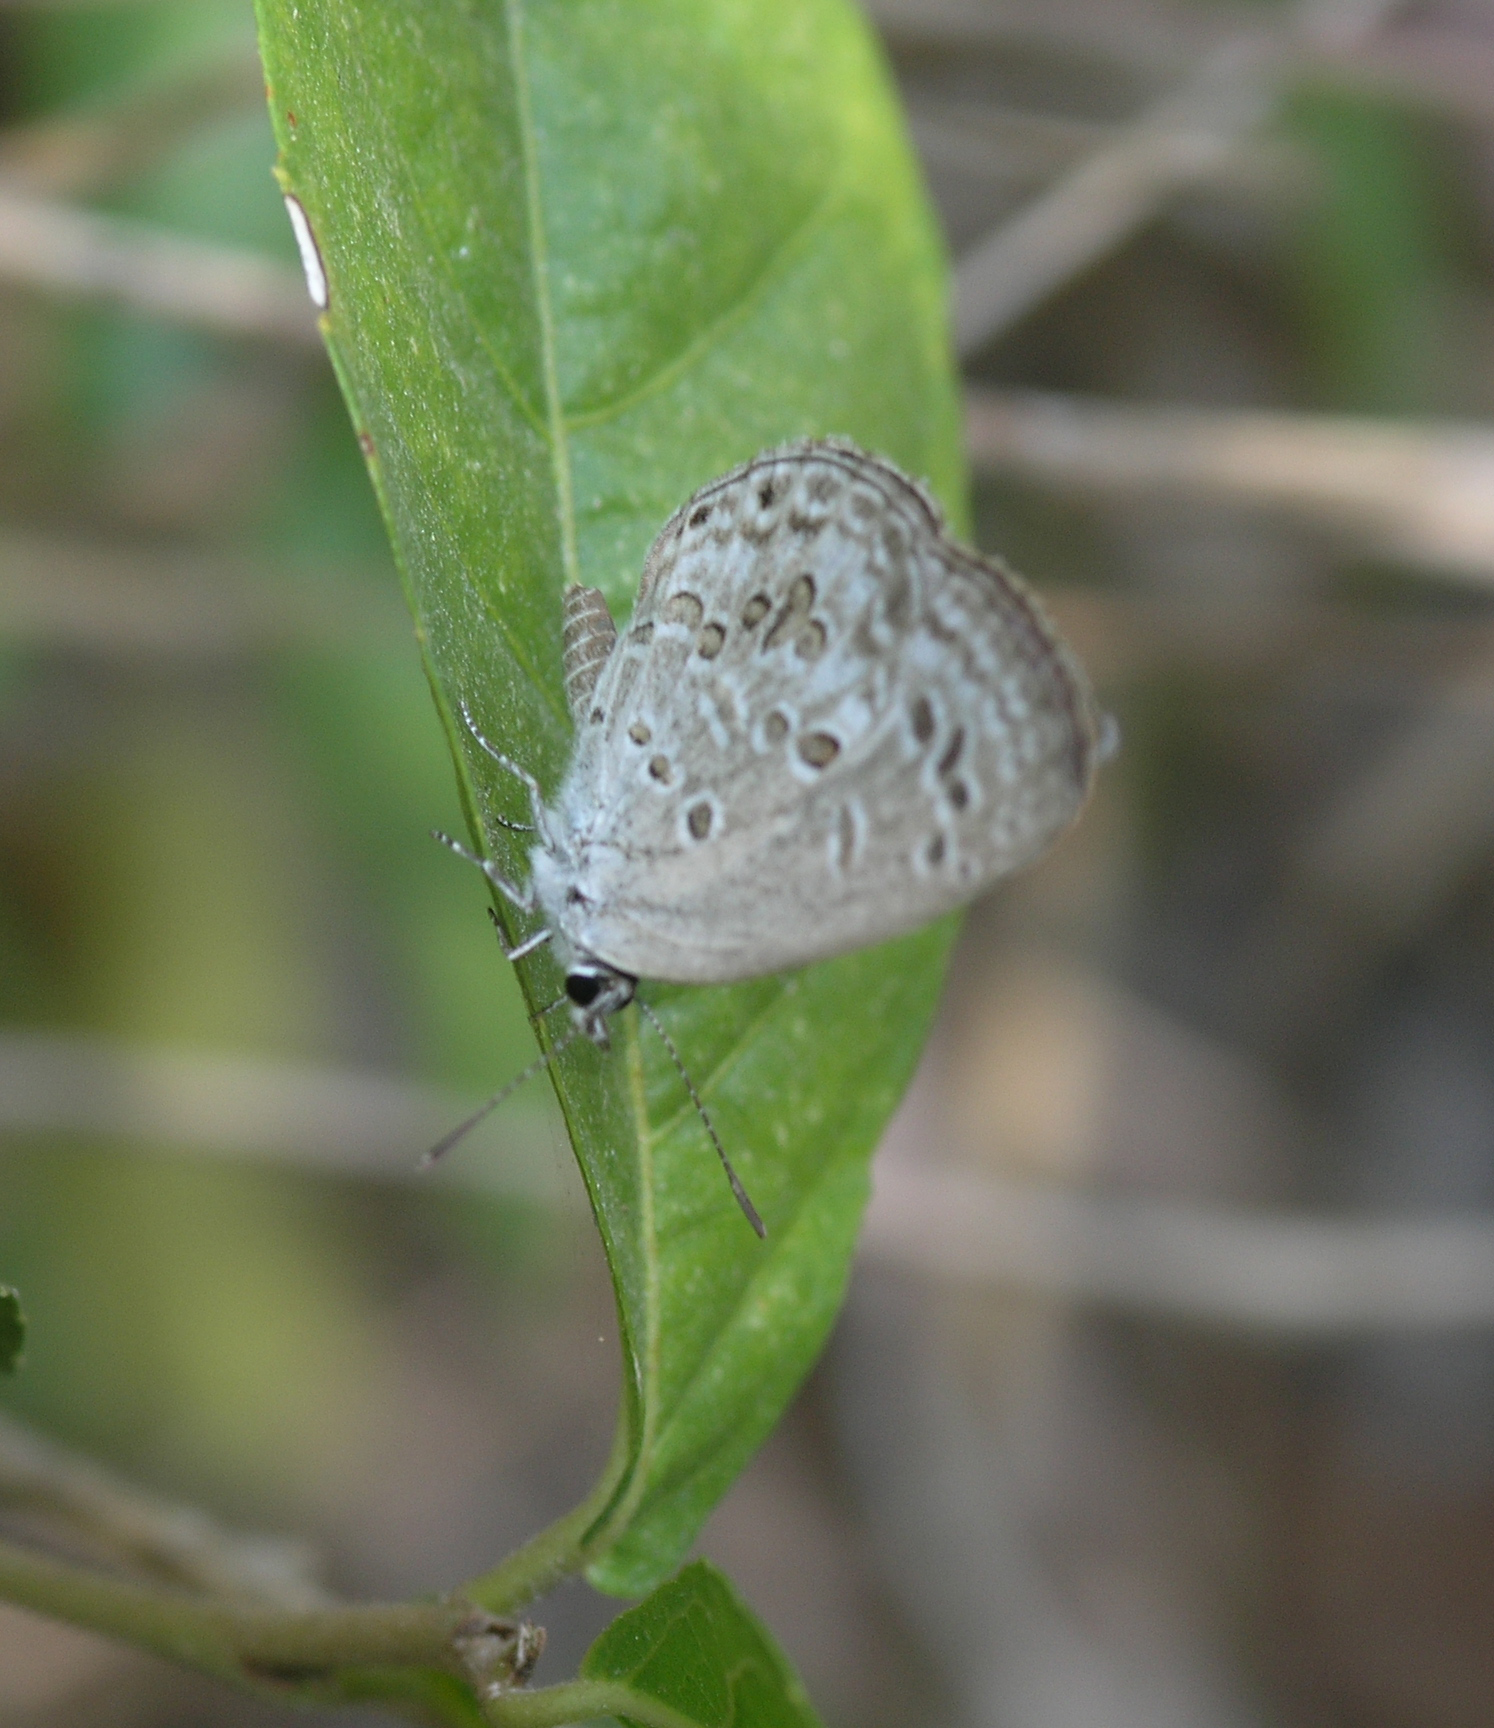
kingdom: Animalia
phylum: Arthropoda
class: Insecta
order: Lepidoptera
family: Lycaenidae
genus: Chilades
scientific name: Chilades laius
